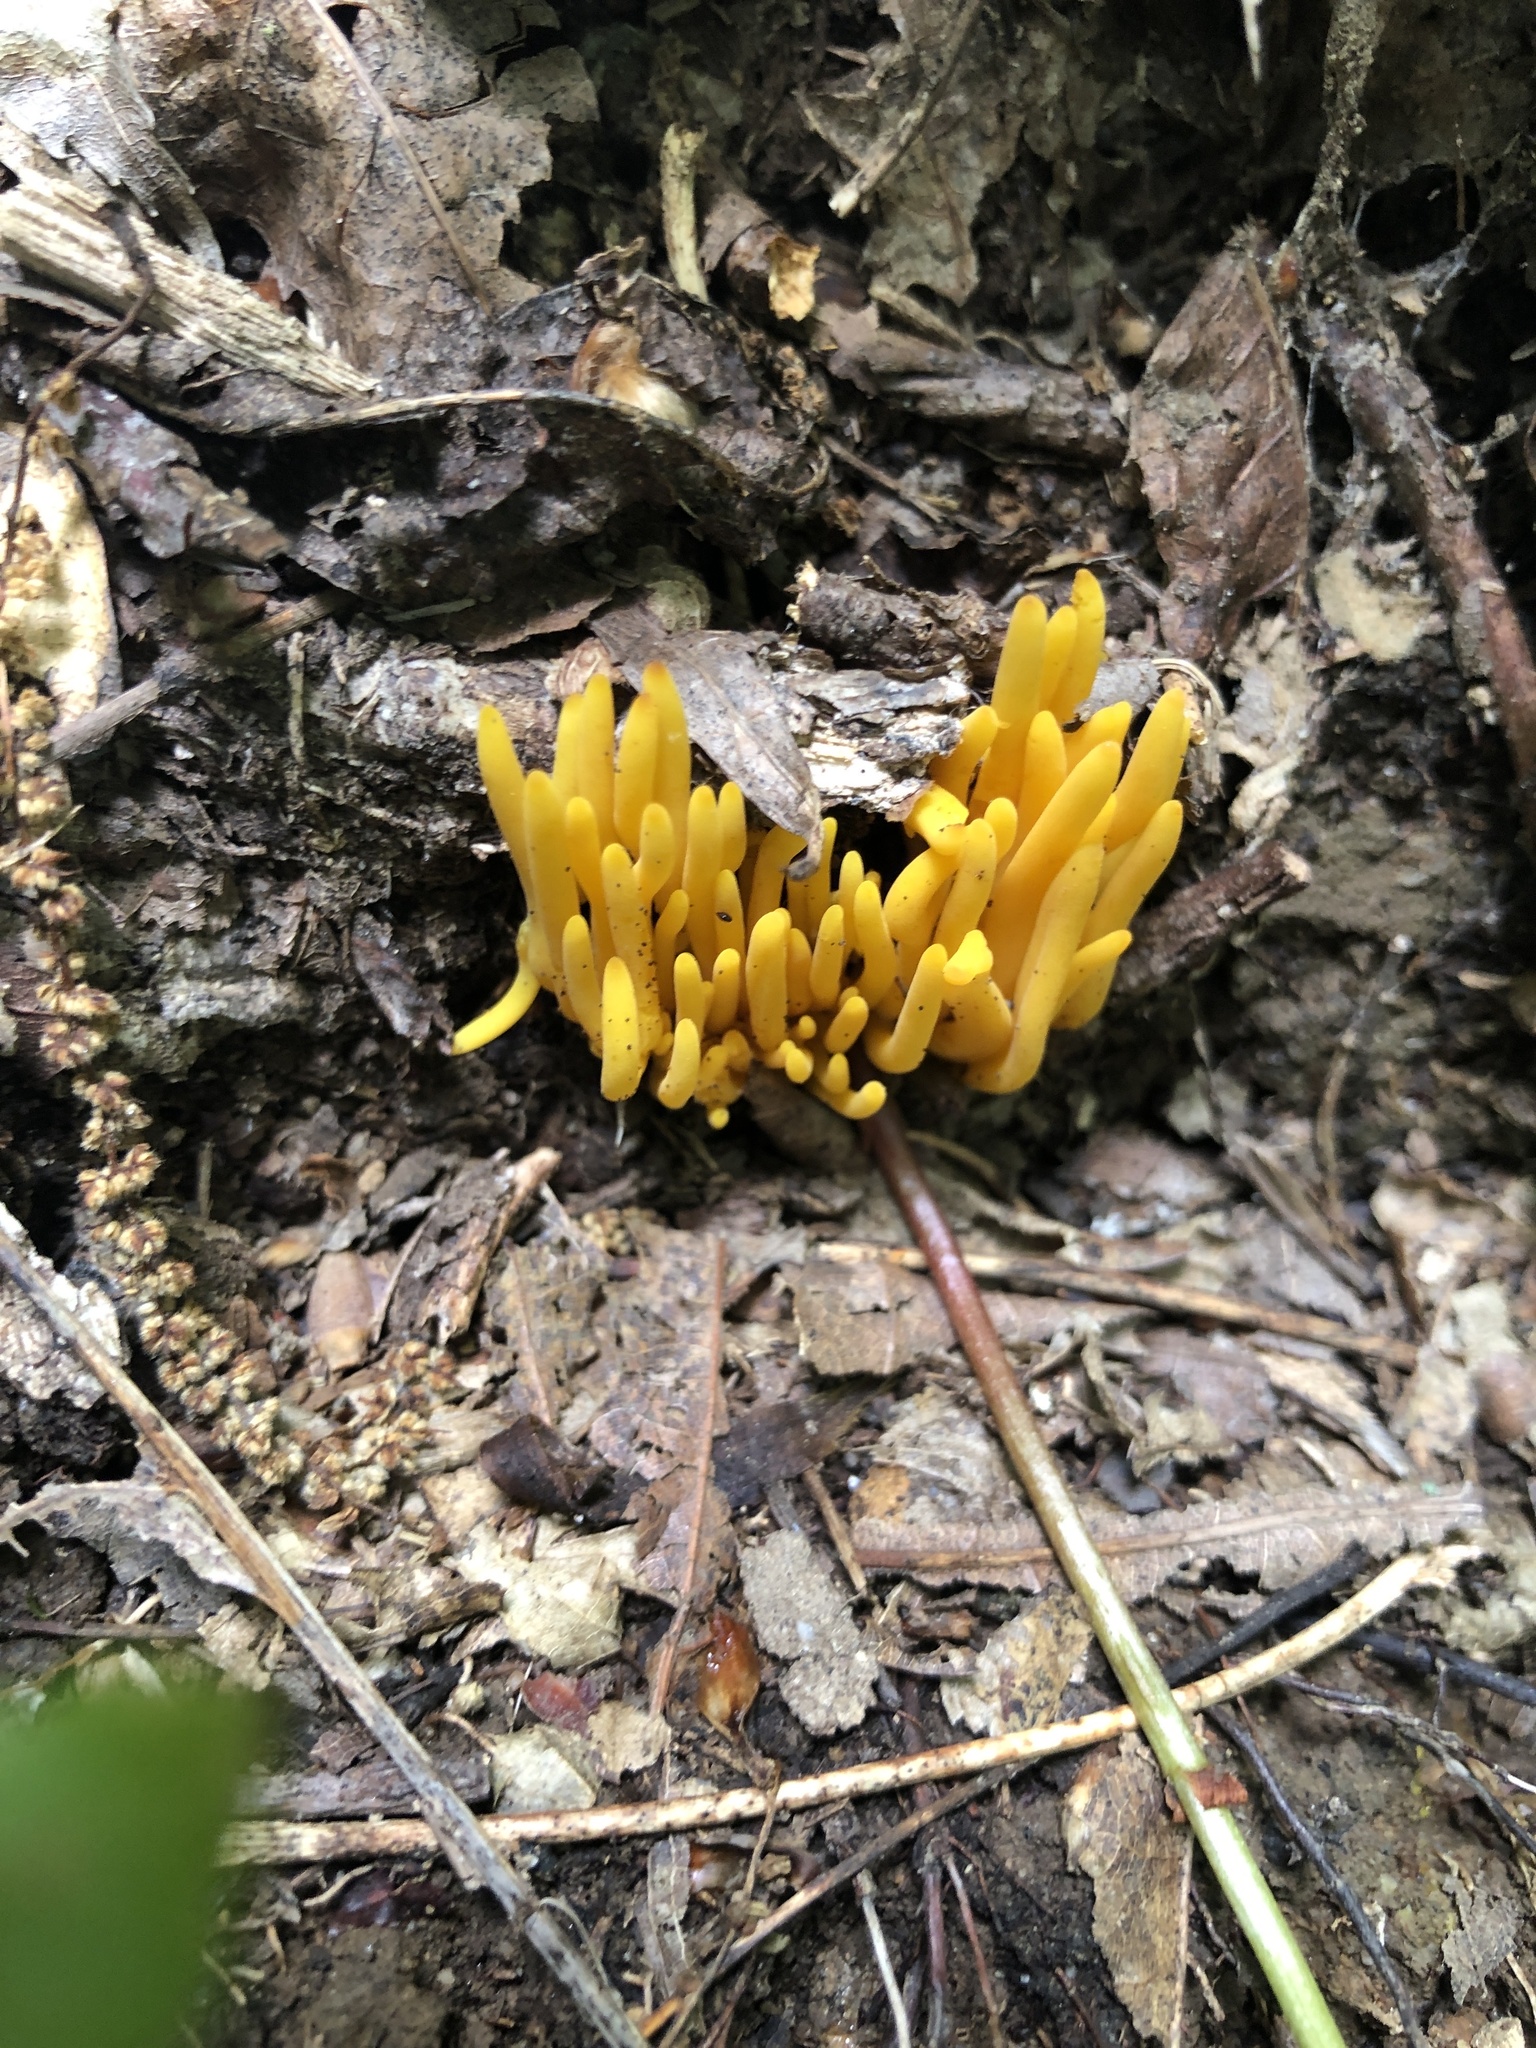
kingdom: Fungi
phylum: Basidiomycota
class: Agaricomycetes
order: Agaricales
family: Clavariaceae
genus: Clavulinopsis
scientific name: Clavulinopsis fusiformis
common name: Golden spindles
